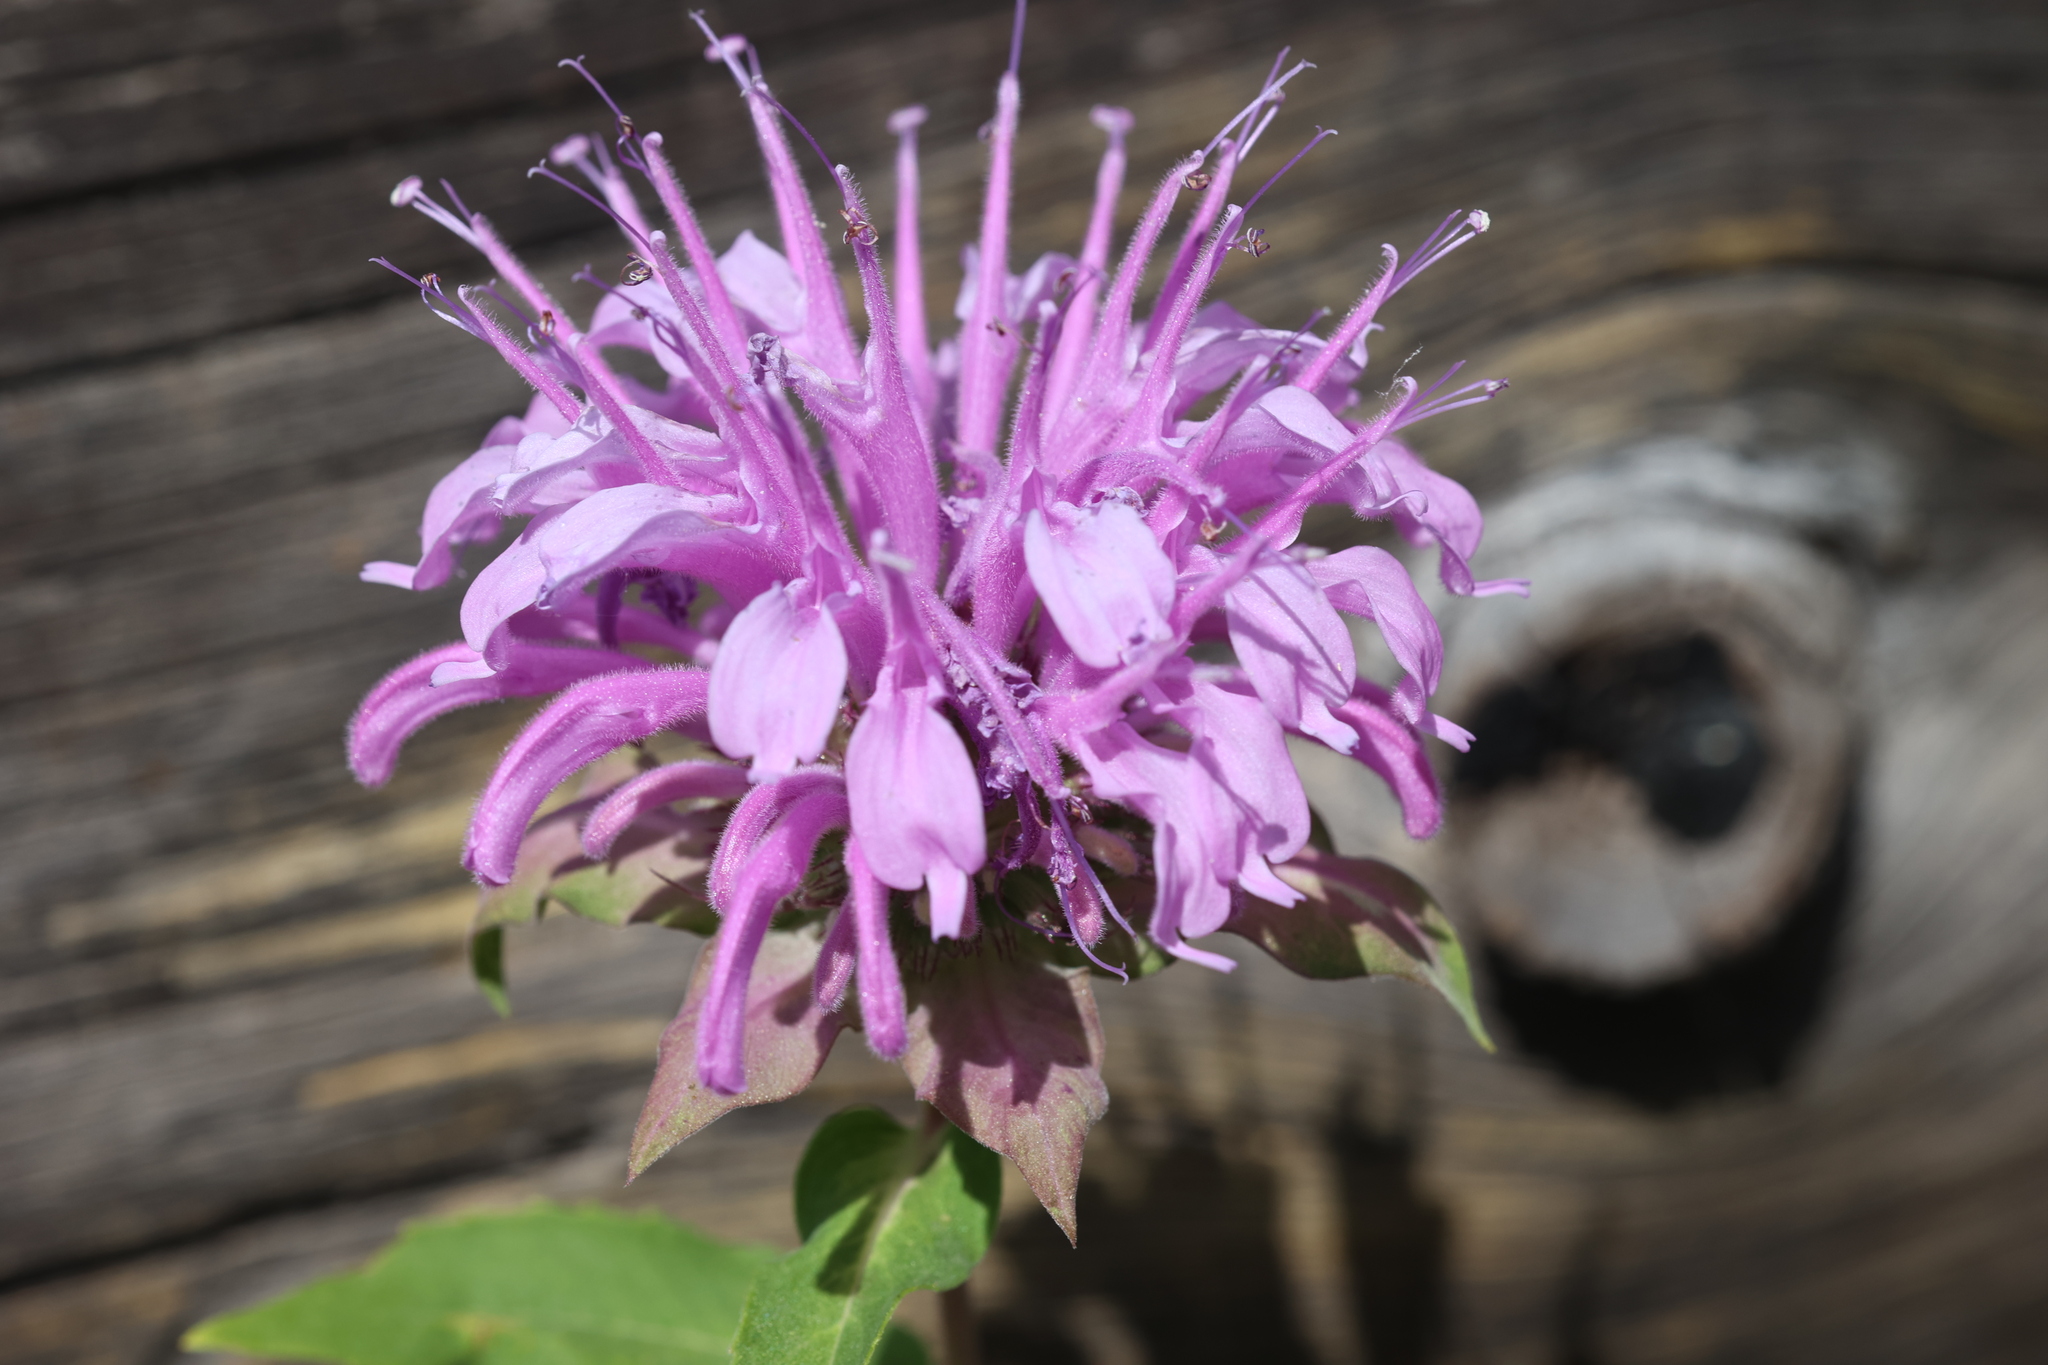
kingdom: Plantae
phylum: Tracheophyta
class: Magnoliopsida
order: Lamiales
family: Lamiaceae
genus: Monarda
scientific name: Monarda fistulosa
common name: Purple beebalm
